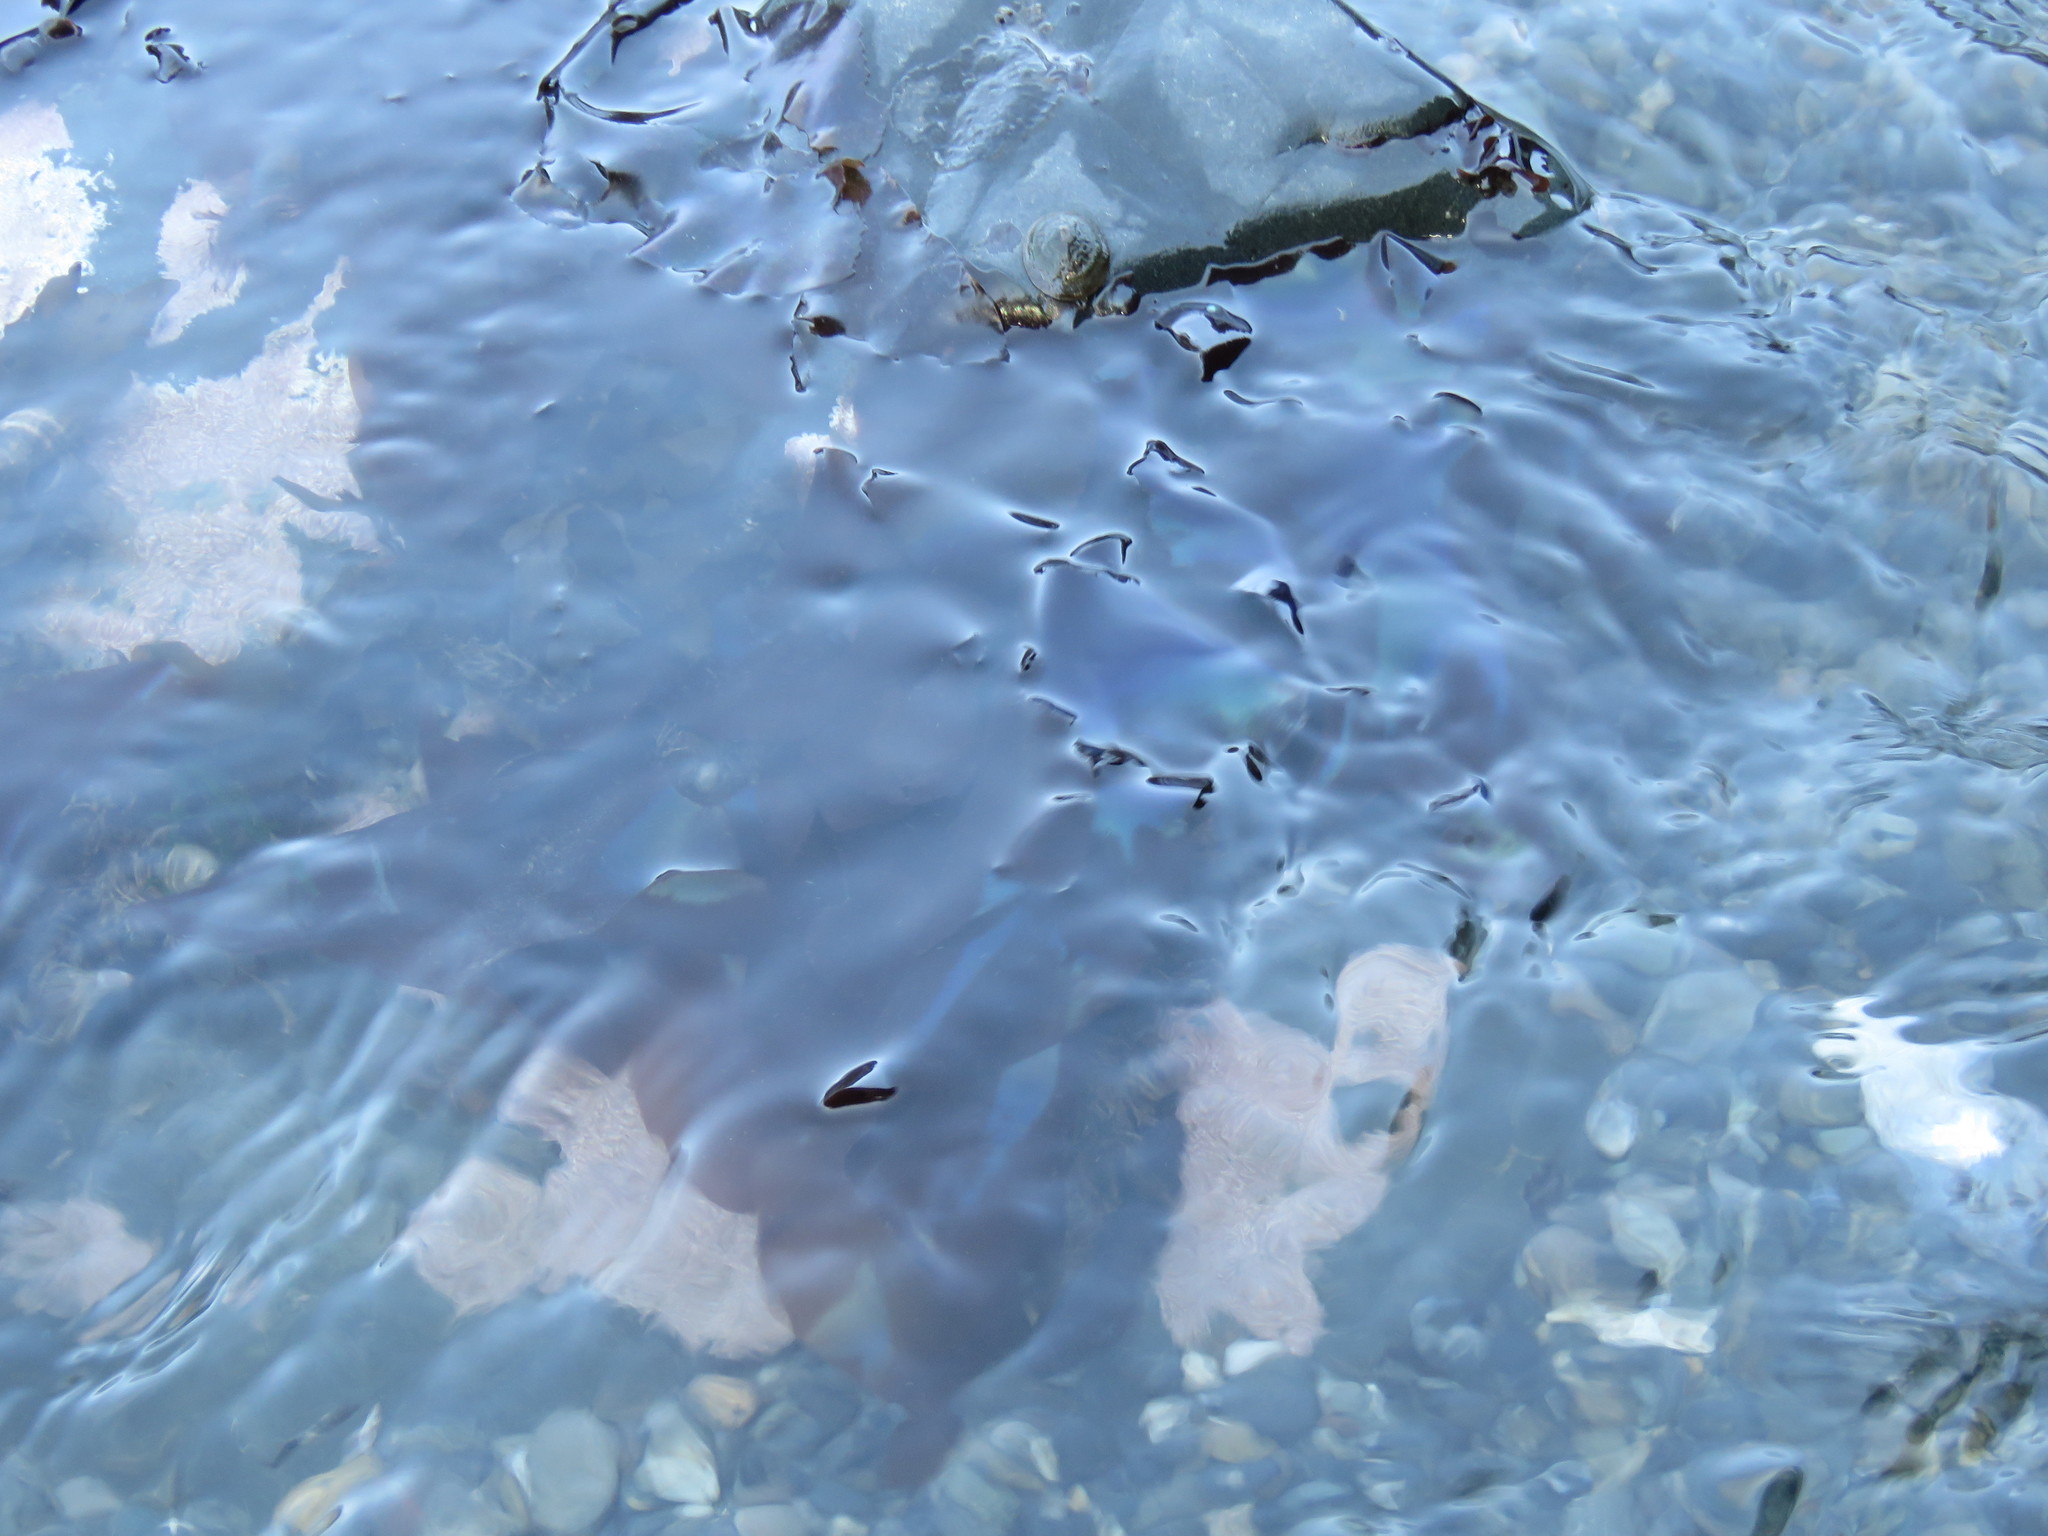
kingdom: Plantae
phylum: Rhodophyta
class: Florideophyceae
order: Gigartinales
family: Gigartinaceae
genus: Mazzaella
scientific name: Mazzaella splendens
